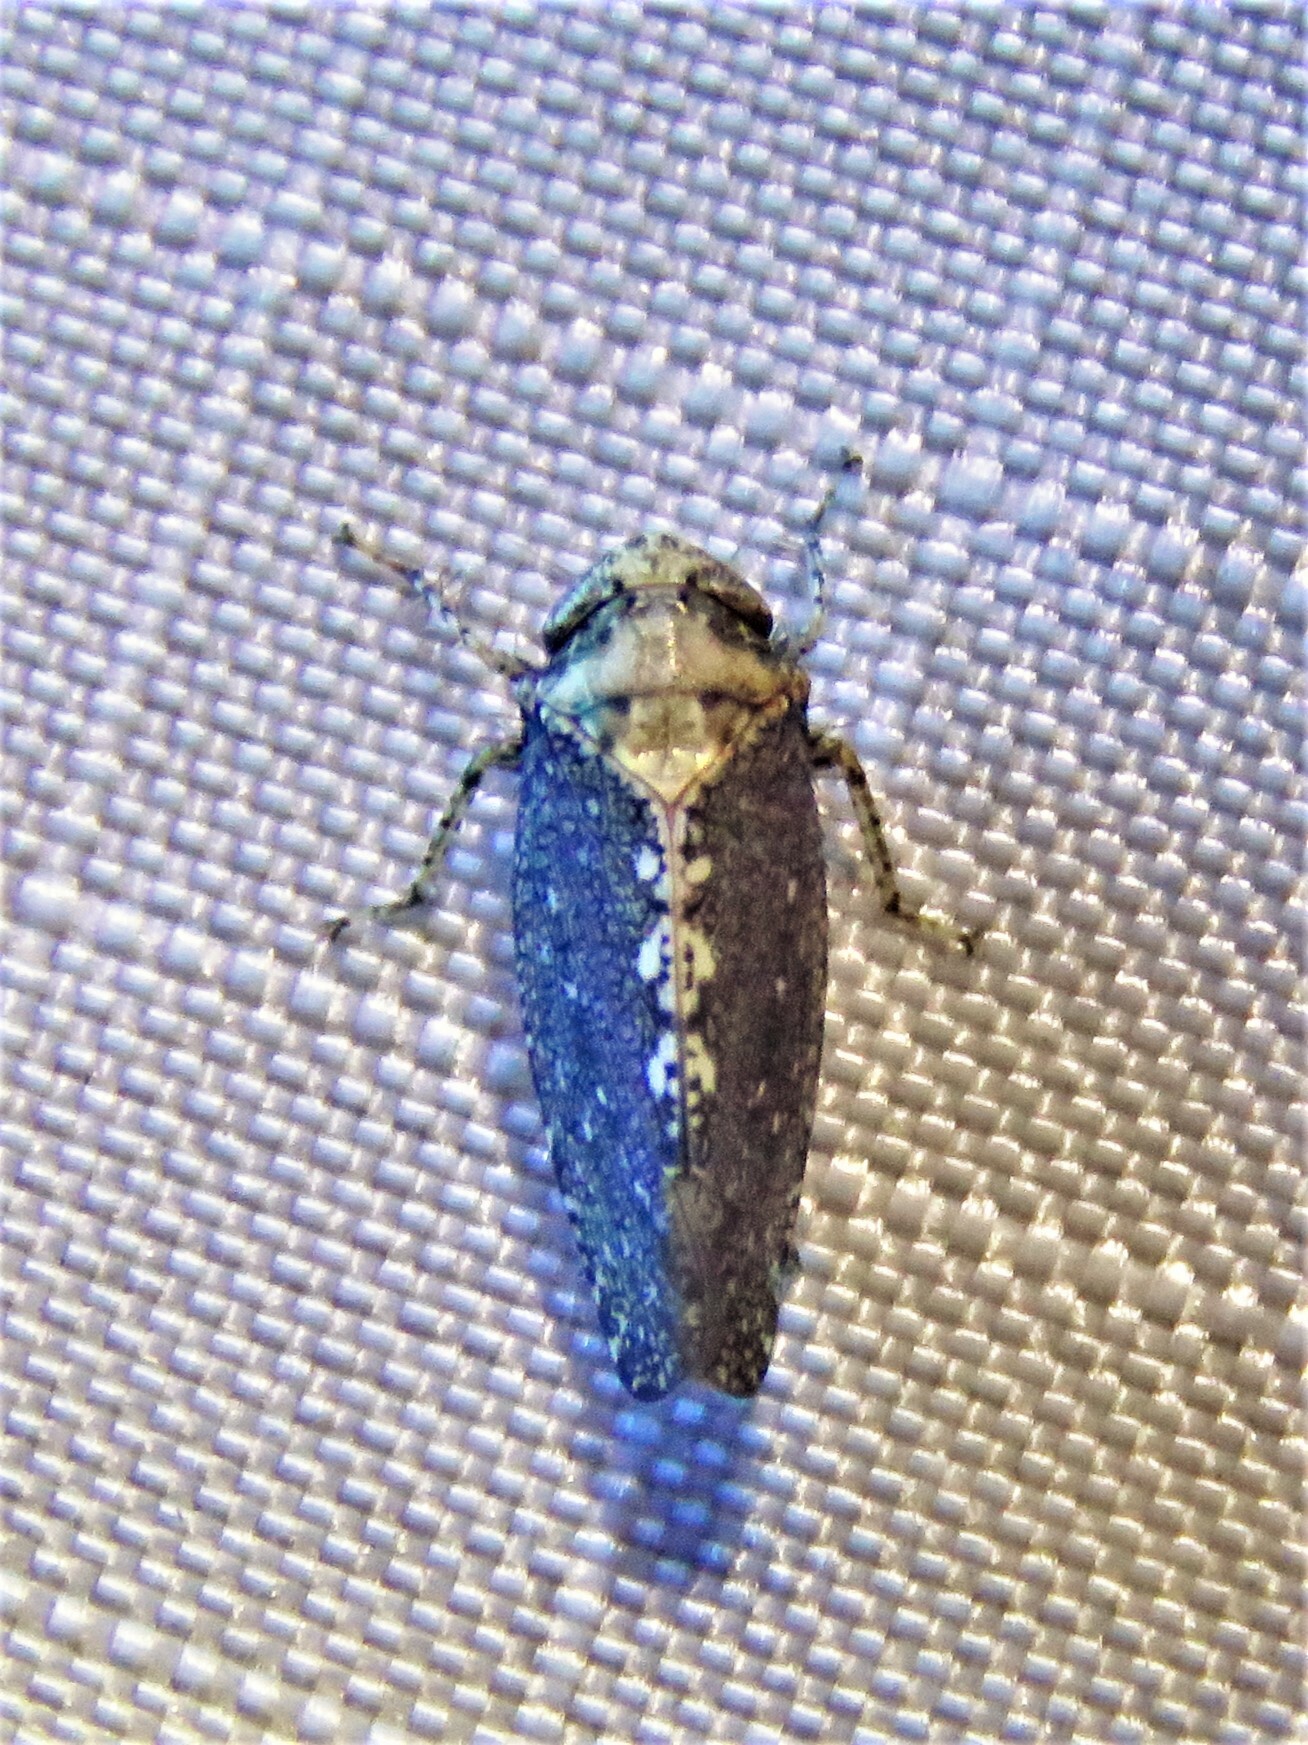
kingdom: Animalia
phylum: Arthropoda
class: Insecta
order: Hemiptera
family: Cicadellidae
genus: Excultanus
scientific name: Excultanus excultus
